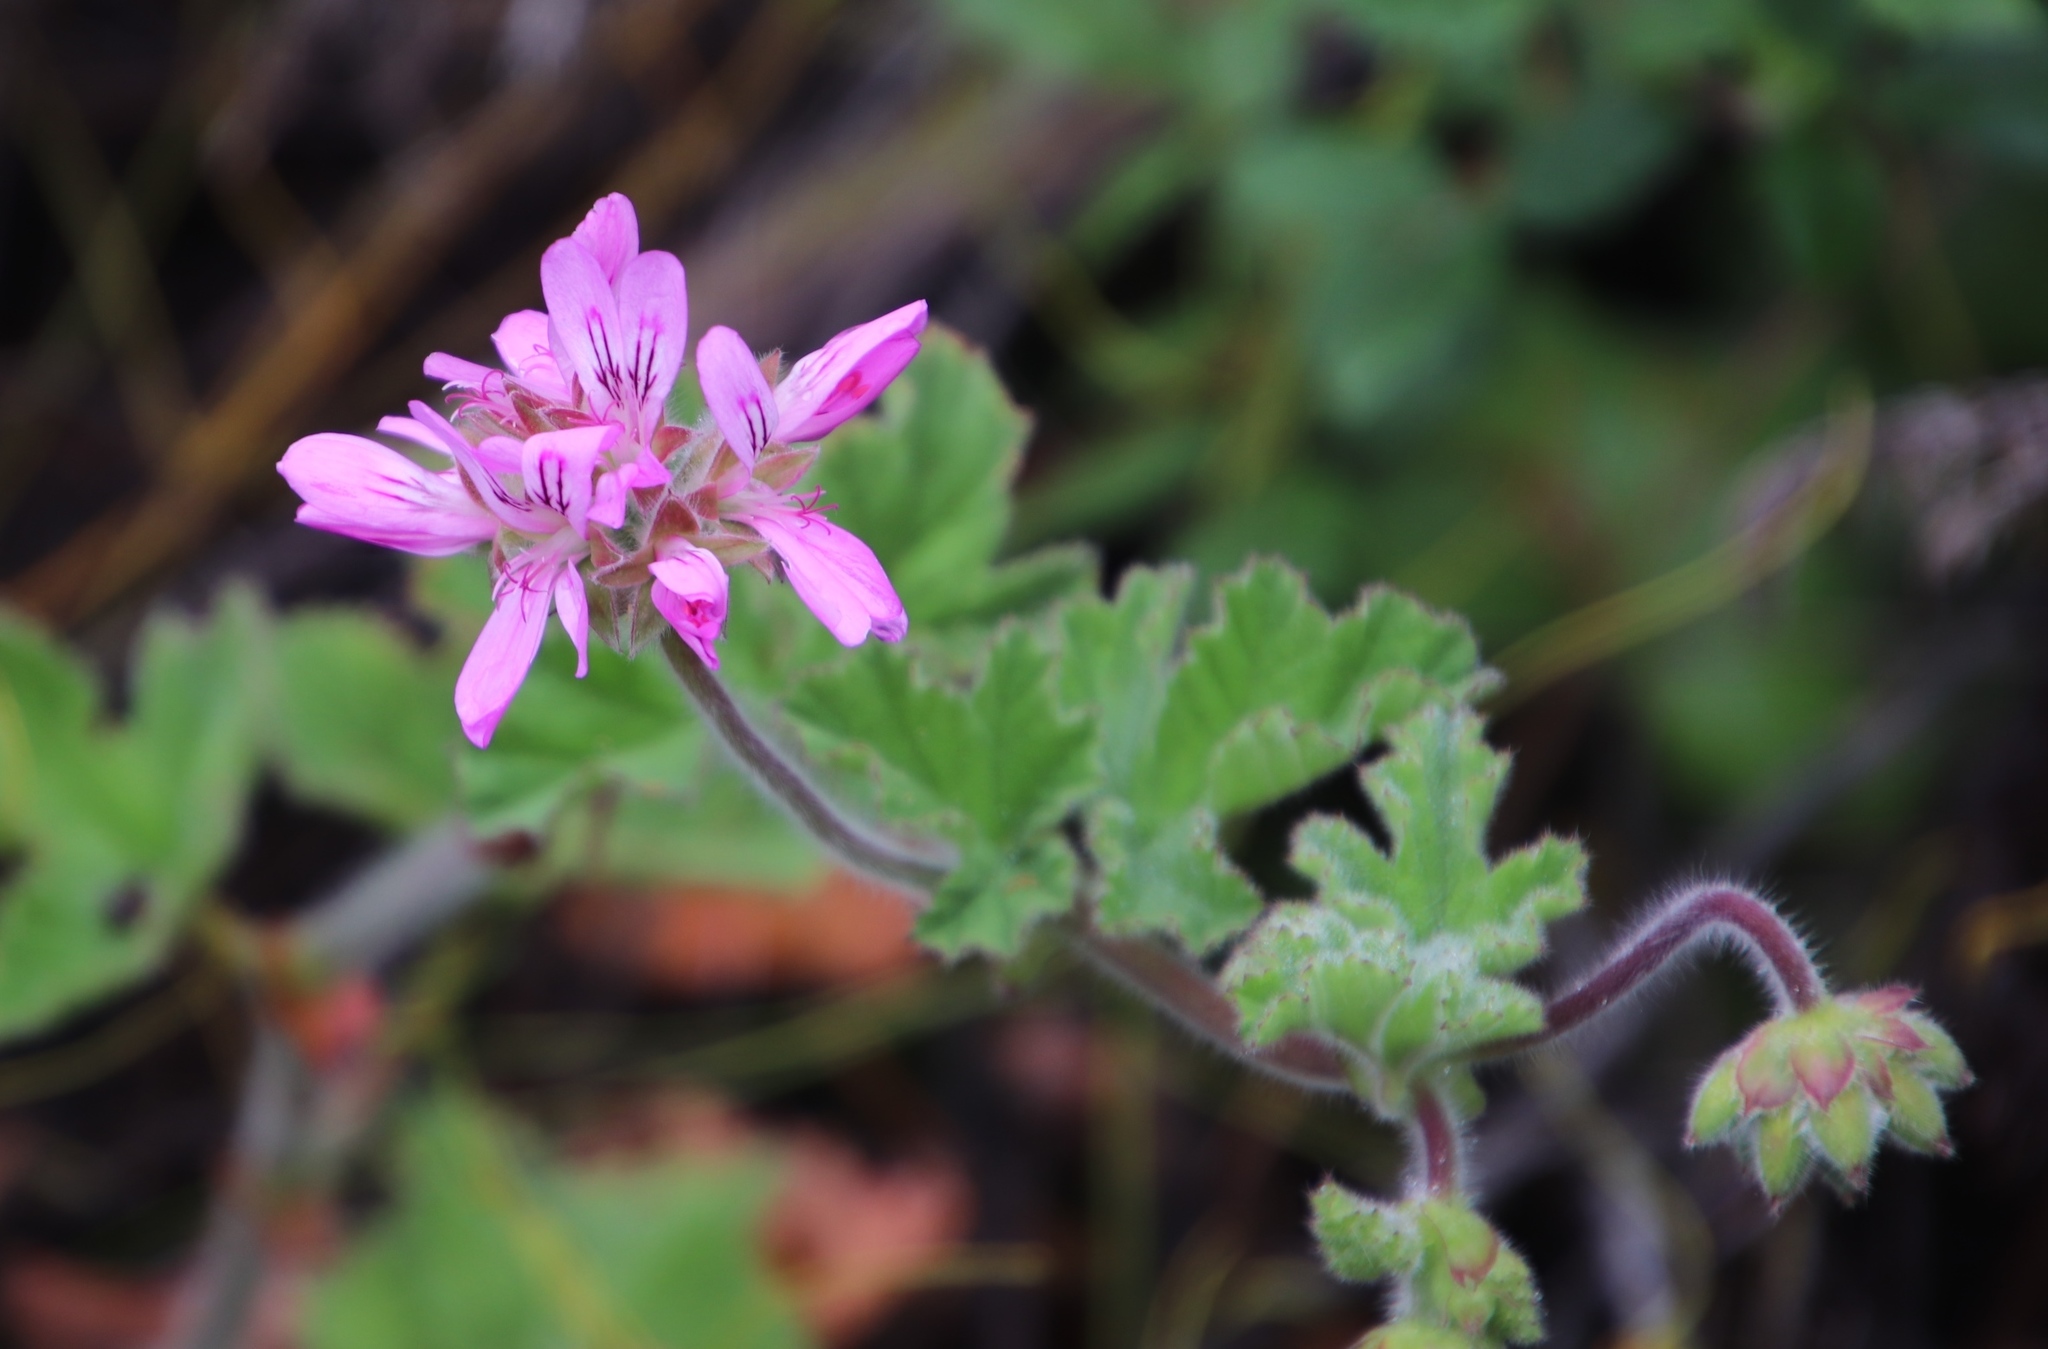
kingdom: Plantae
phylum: Tracheophyta
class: Magnoliopsida
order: Geraniales
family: Geraniaceae
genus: Pelargonium
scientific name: Pelargonium capitatum
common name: Rose scented geranium
